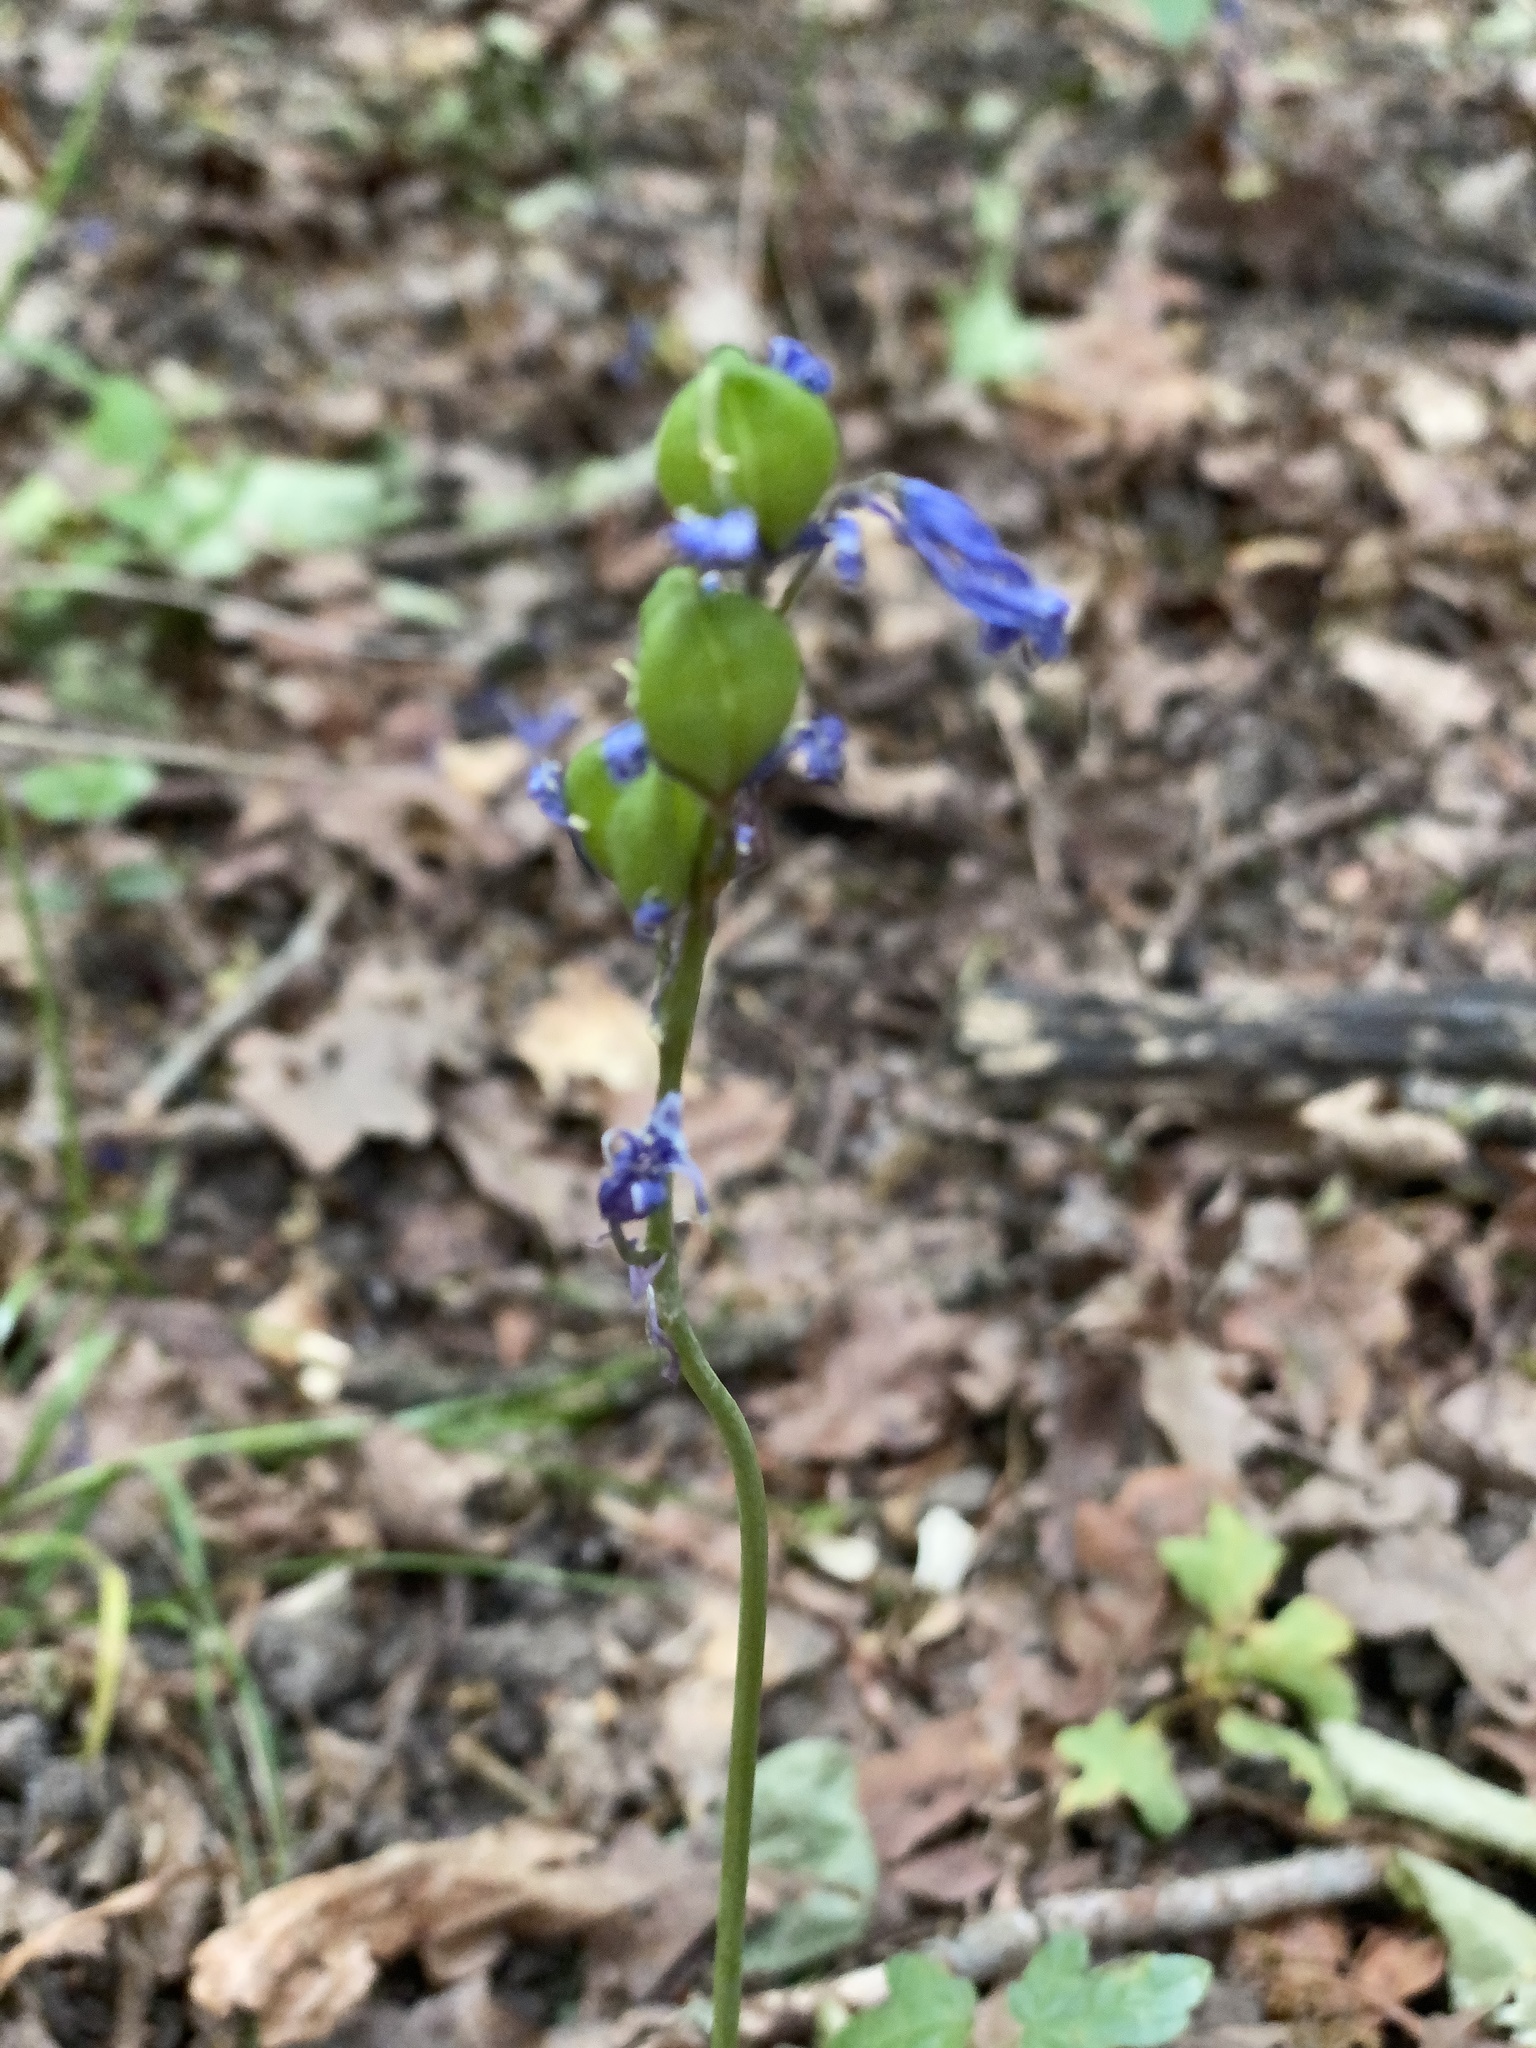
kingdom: Plantae
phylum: Tracheophyta
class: Liliopsida
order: Asparagales
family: Asparagaceae
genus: Hyacinthoides
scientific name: Hyacinthoides non-scripta
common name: Bluebell
